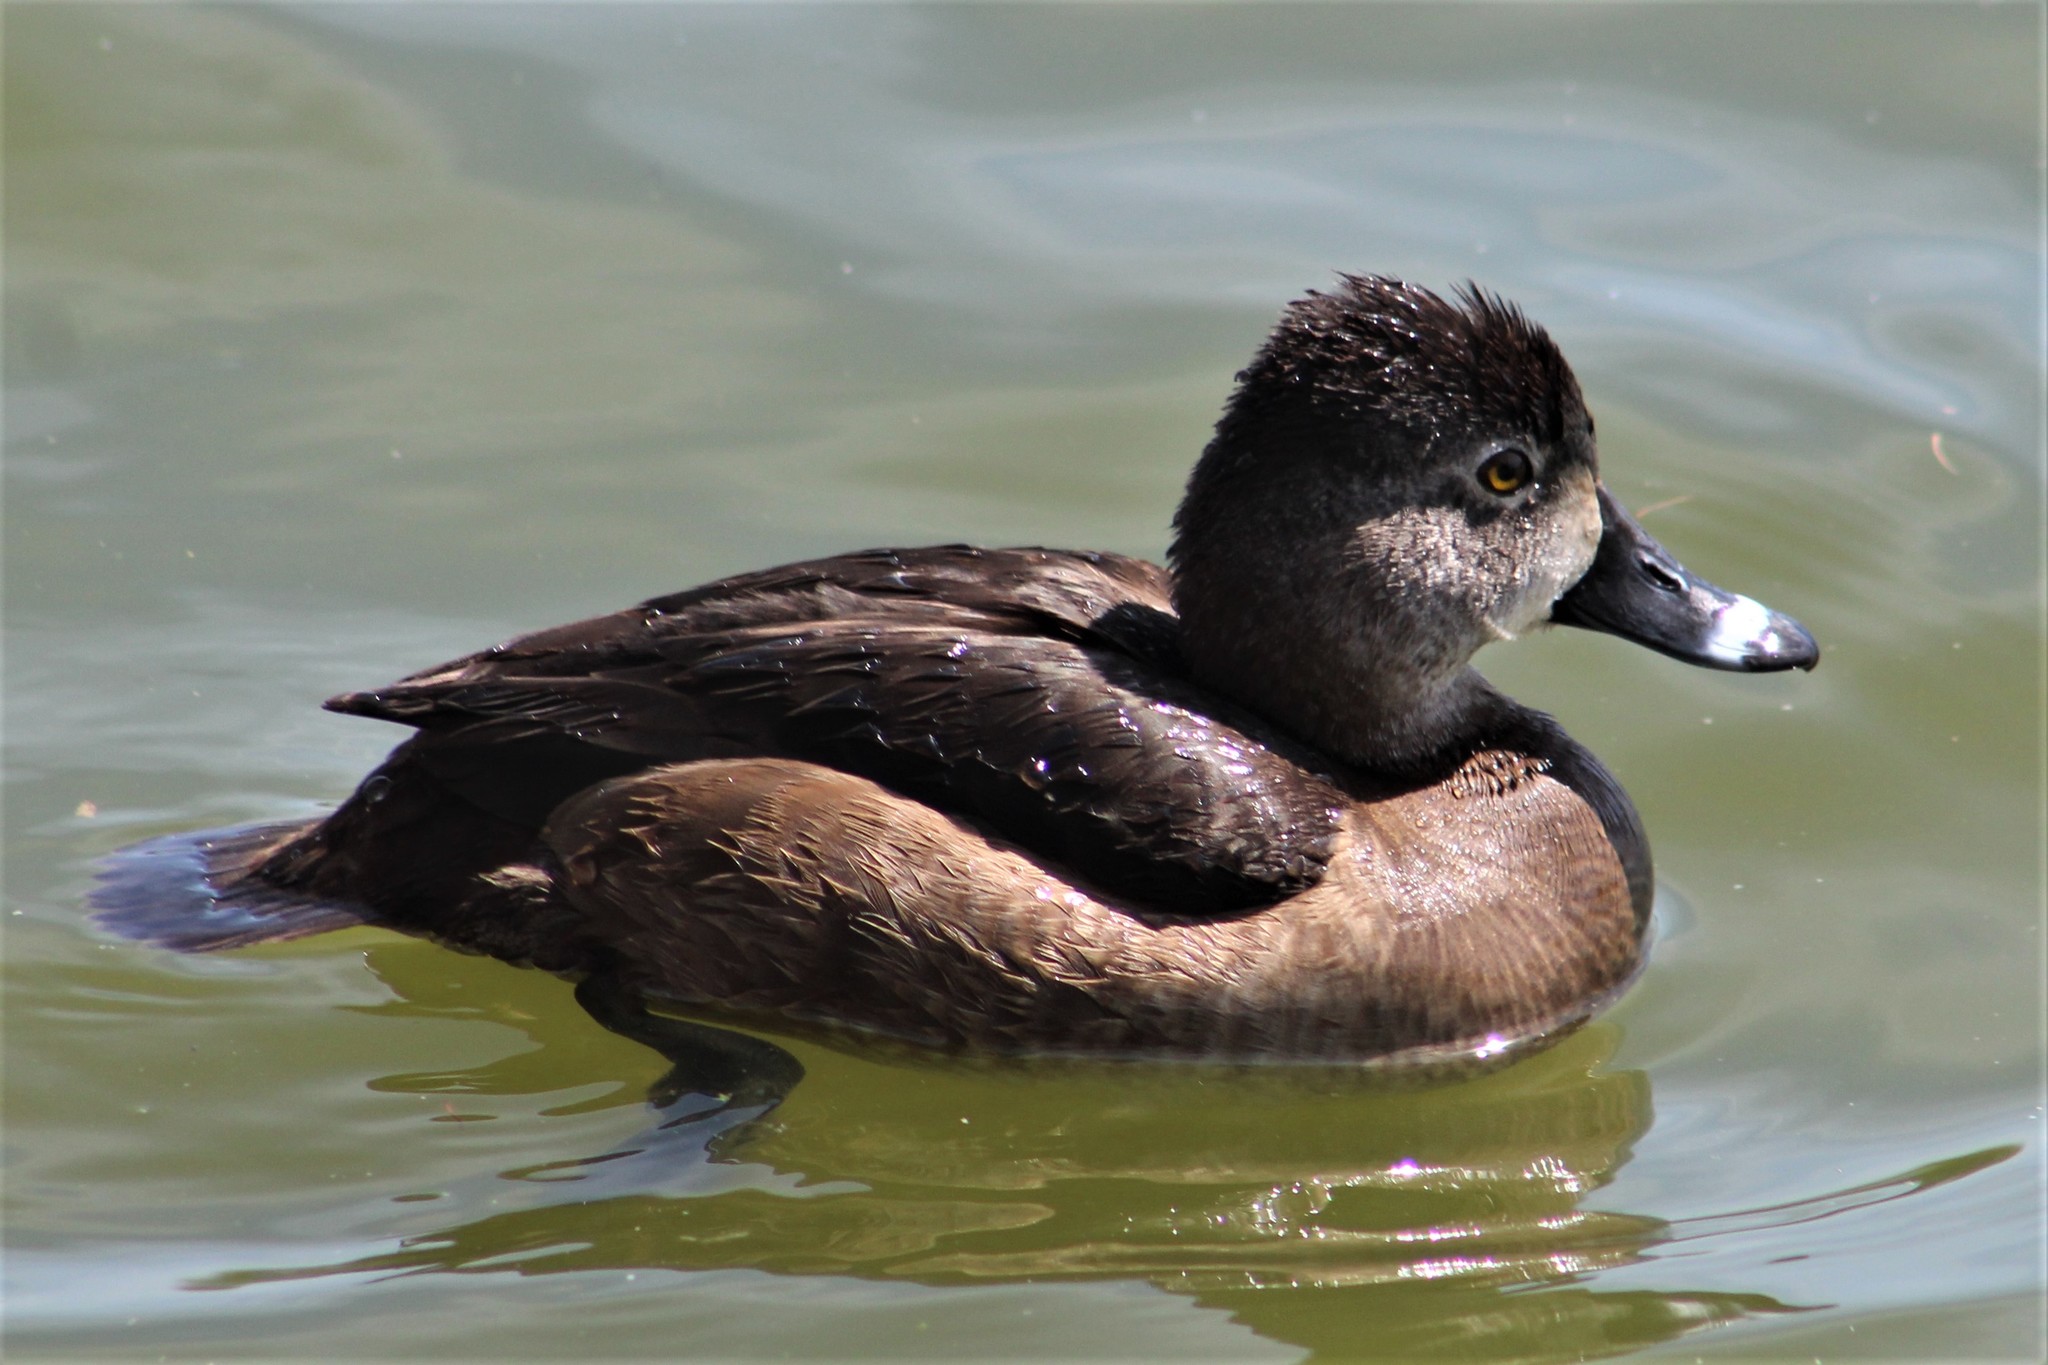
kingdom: Animalia
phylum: Chordata
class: Aves
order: Anseriformes
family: Anatidae
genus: Aythya
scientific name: Aythya collaris
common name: Ring-necked duck
